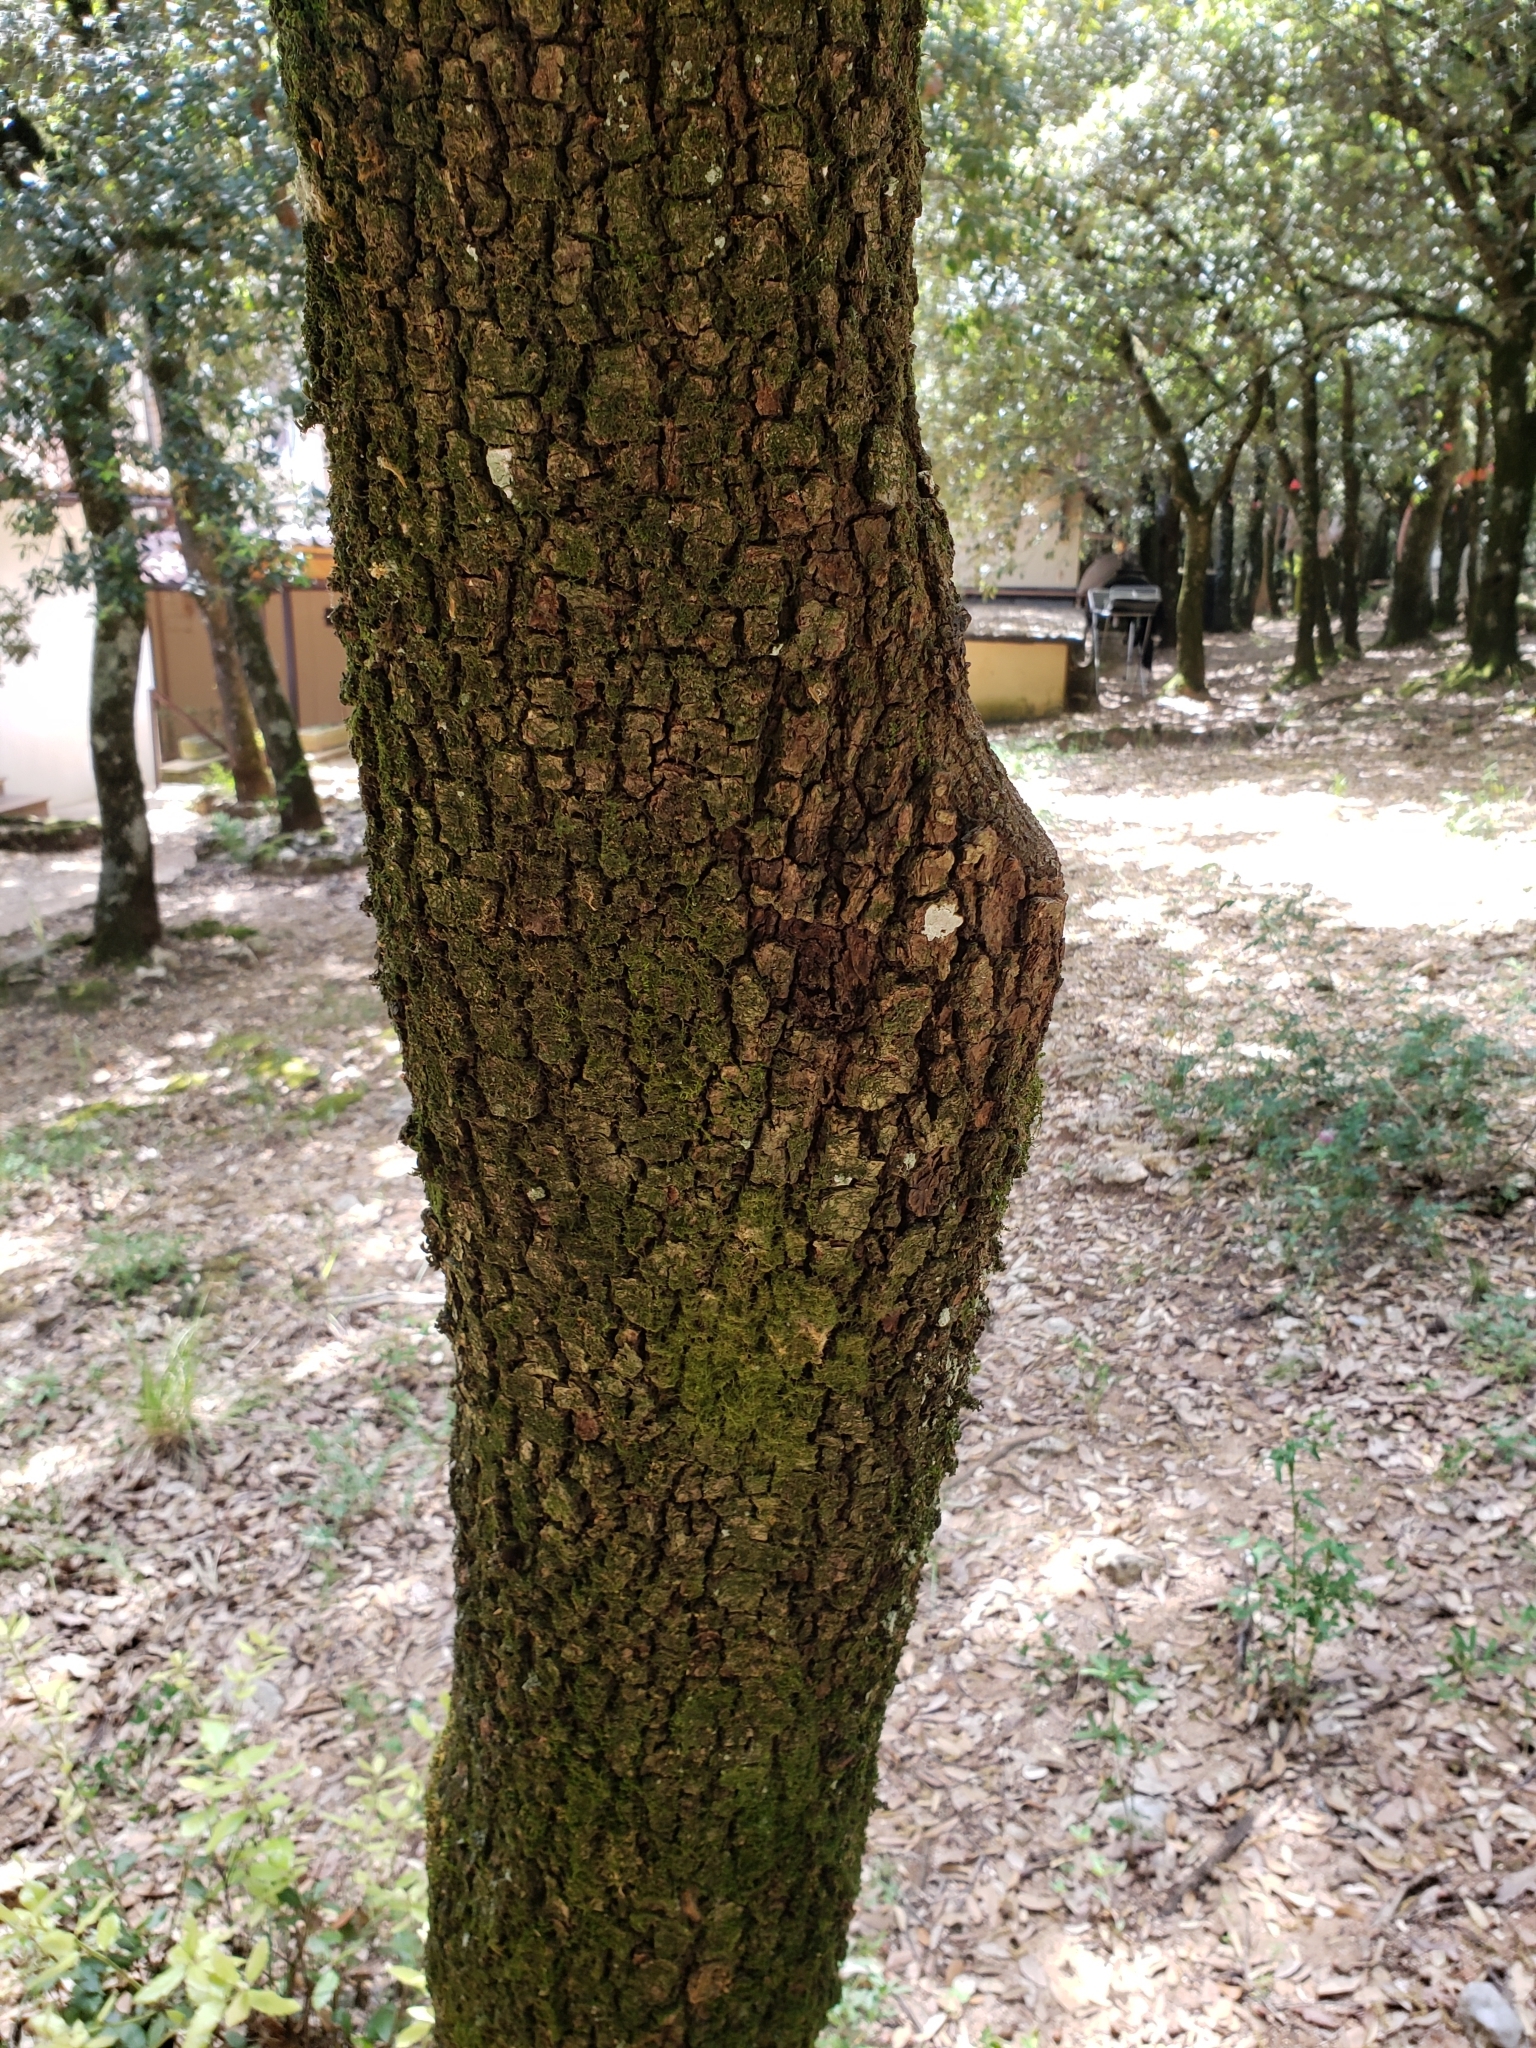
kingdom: Plantae
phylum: Tracheophyta
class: Magnoliopsida
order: Fagales
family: Fagaceae
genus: Quercus
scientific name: Quercus ilex
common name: Evergreen oak
